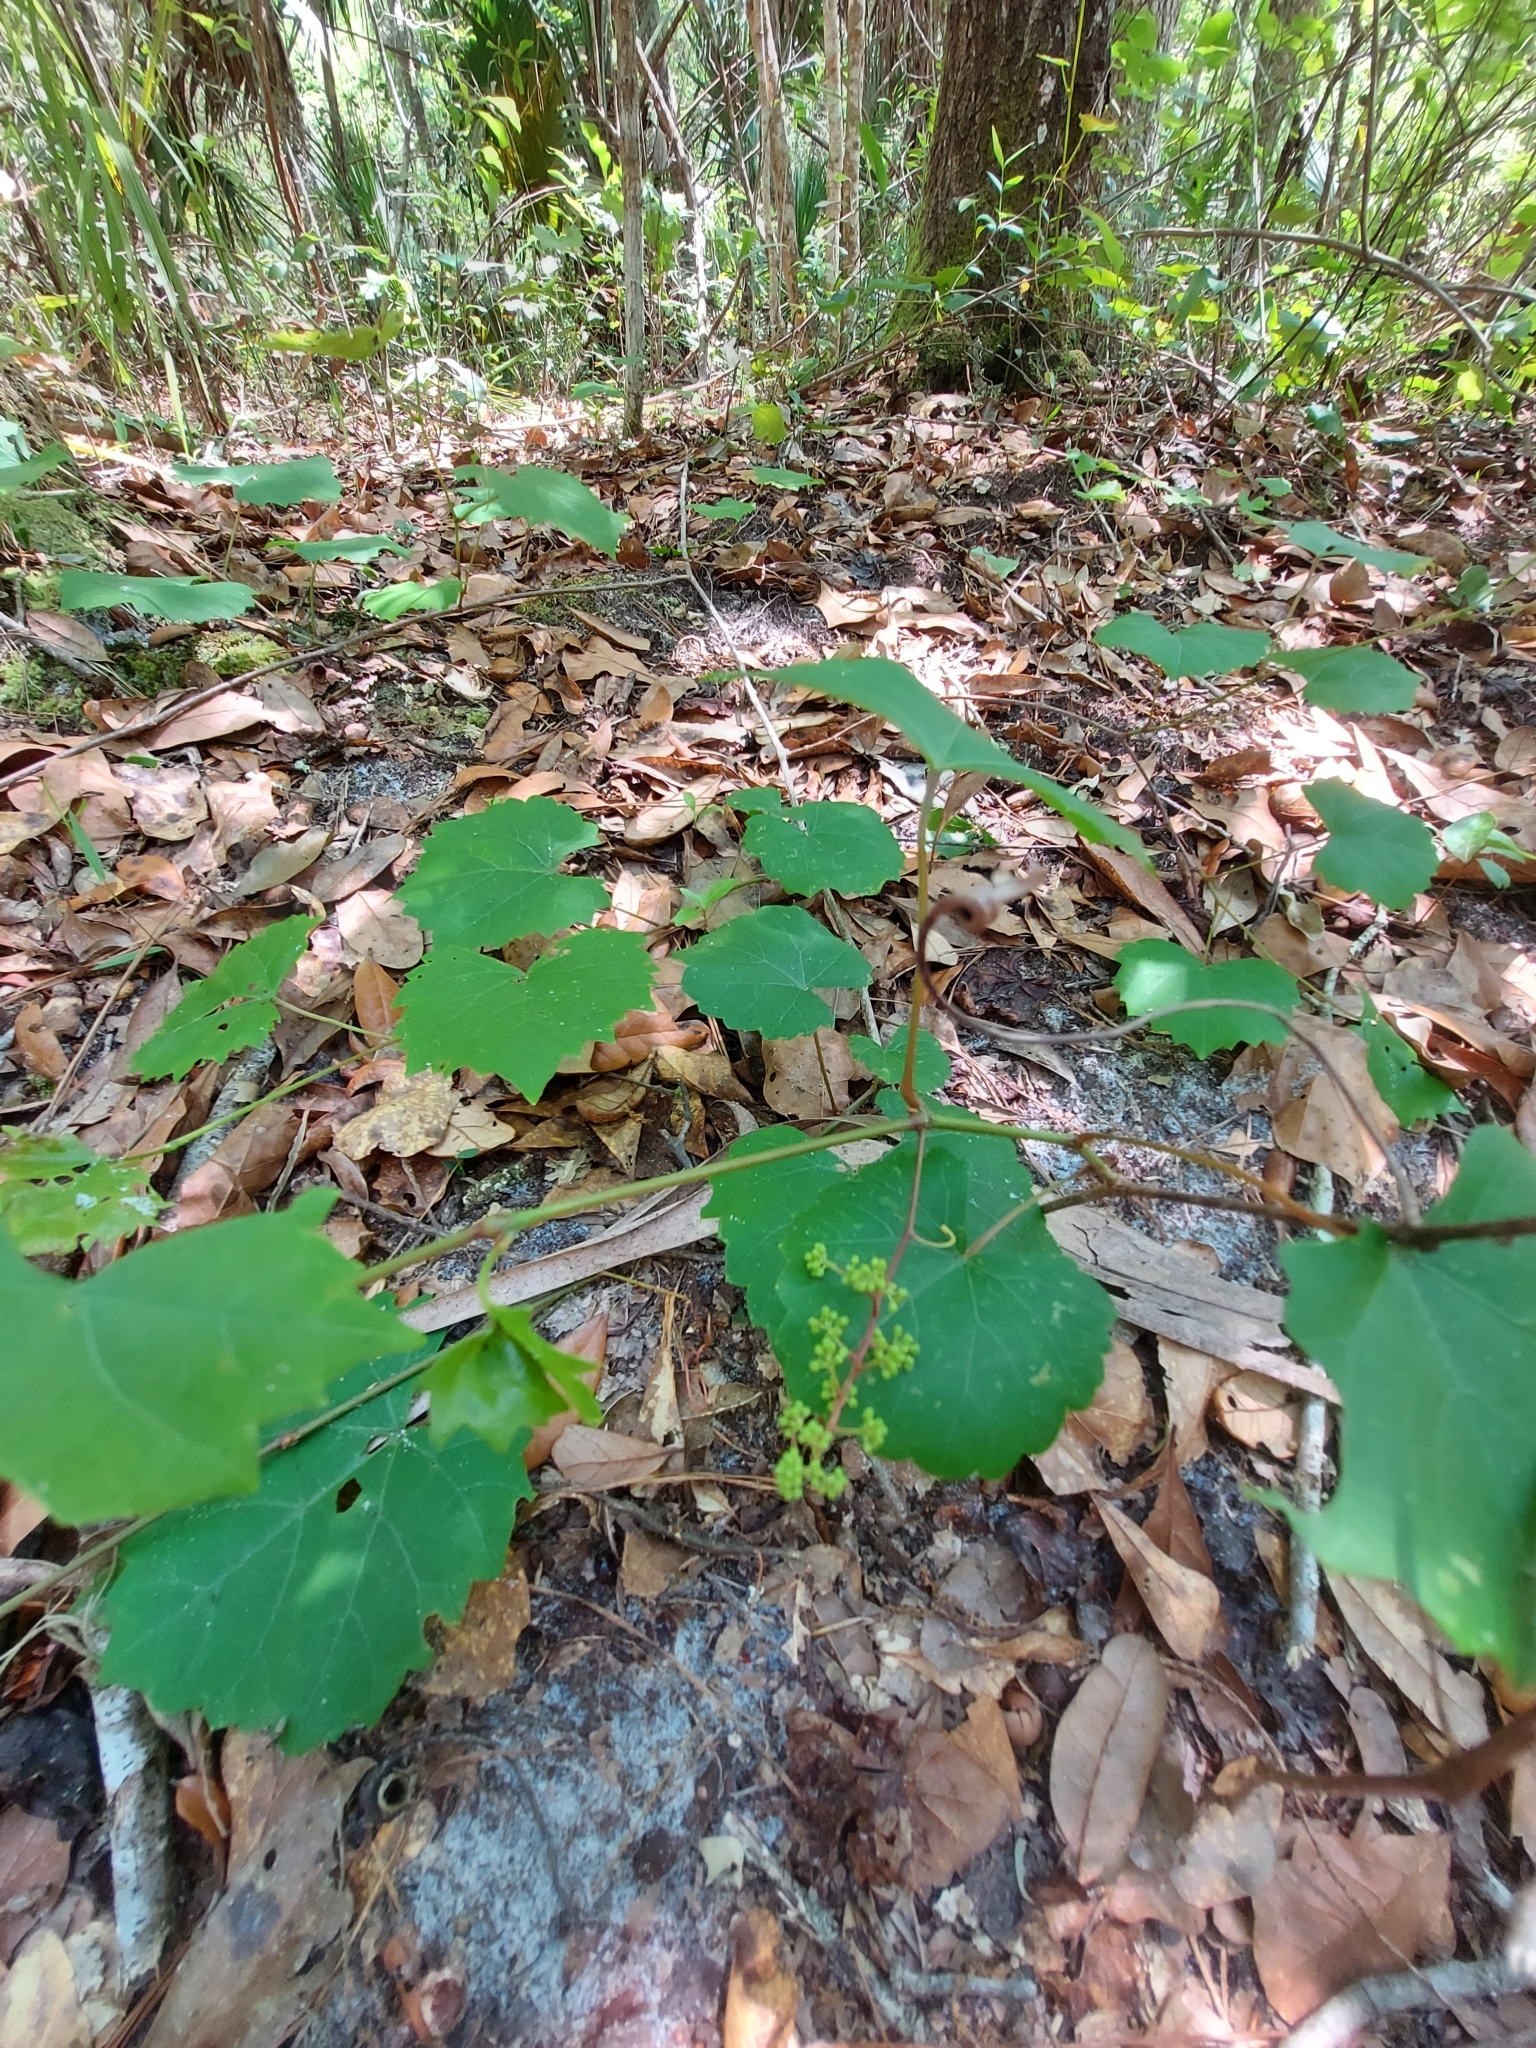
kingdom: Plantae
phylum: Tracheophyta
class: Magnoliopsida
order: Vitales
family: Vitaceae
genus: Vitis
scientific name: Vitis rotundifolia
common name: Muscadine grape
